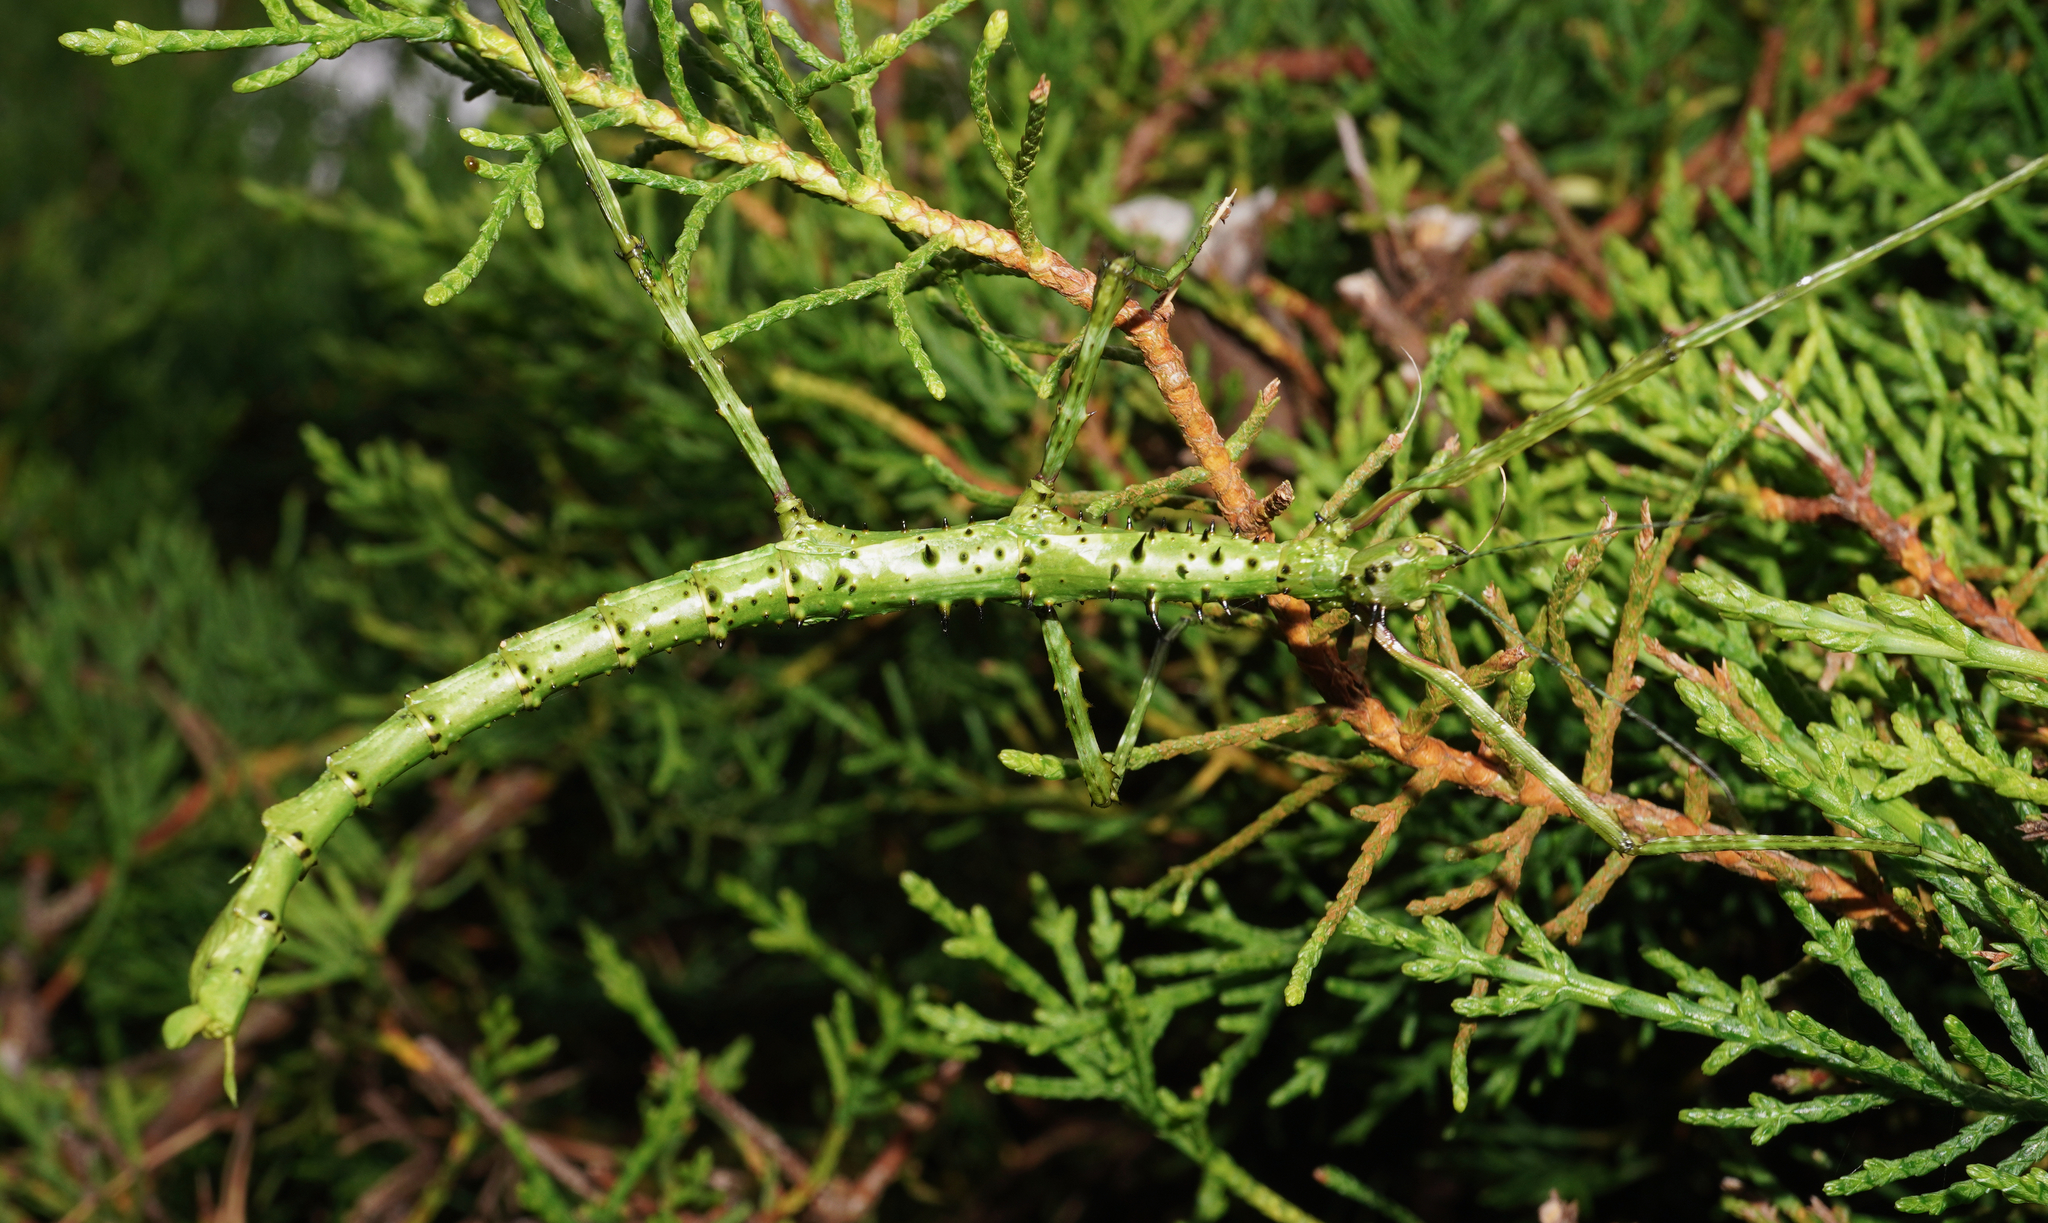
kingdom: Animalia
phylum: Arthropoda
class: Insecta
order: Phasmida
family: Phasmatidae
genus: Acanthoxyla
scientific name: Acanthoxyla prasina
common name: Black-spined stick insect
